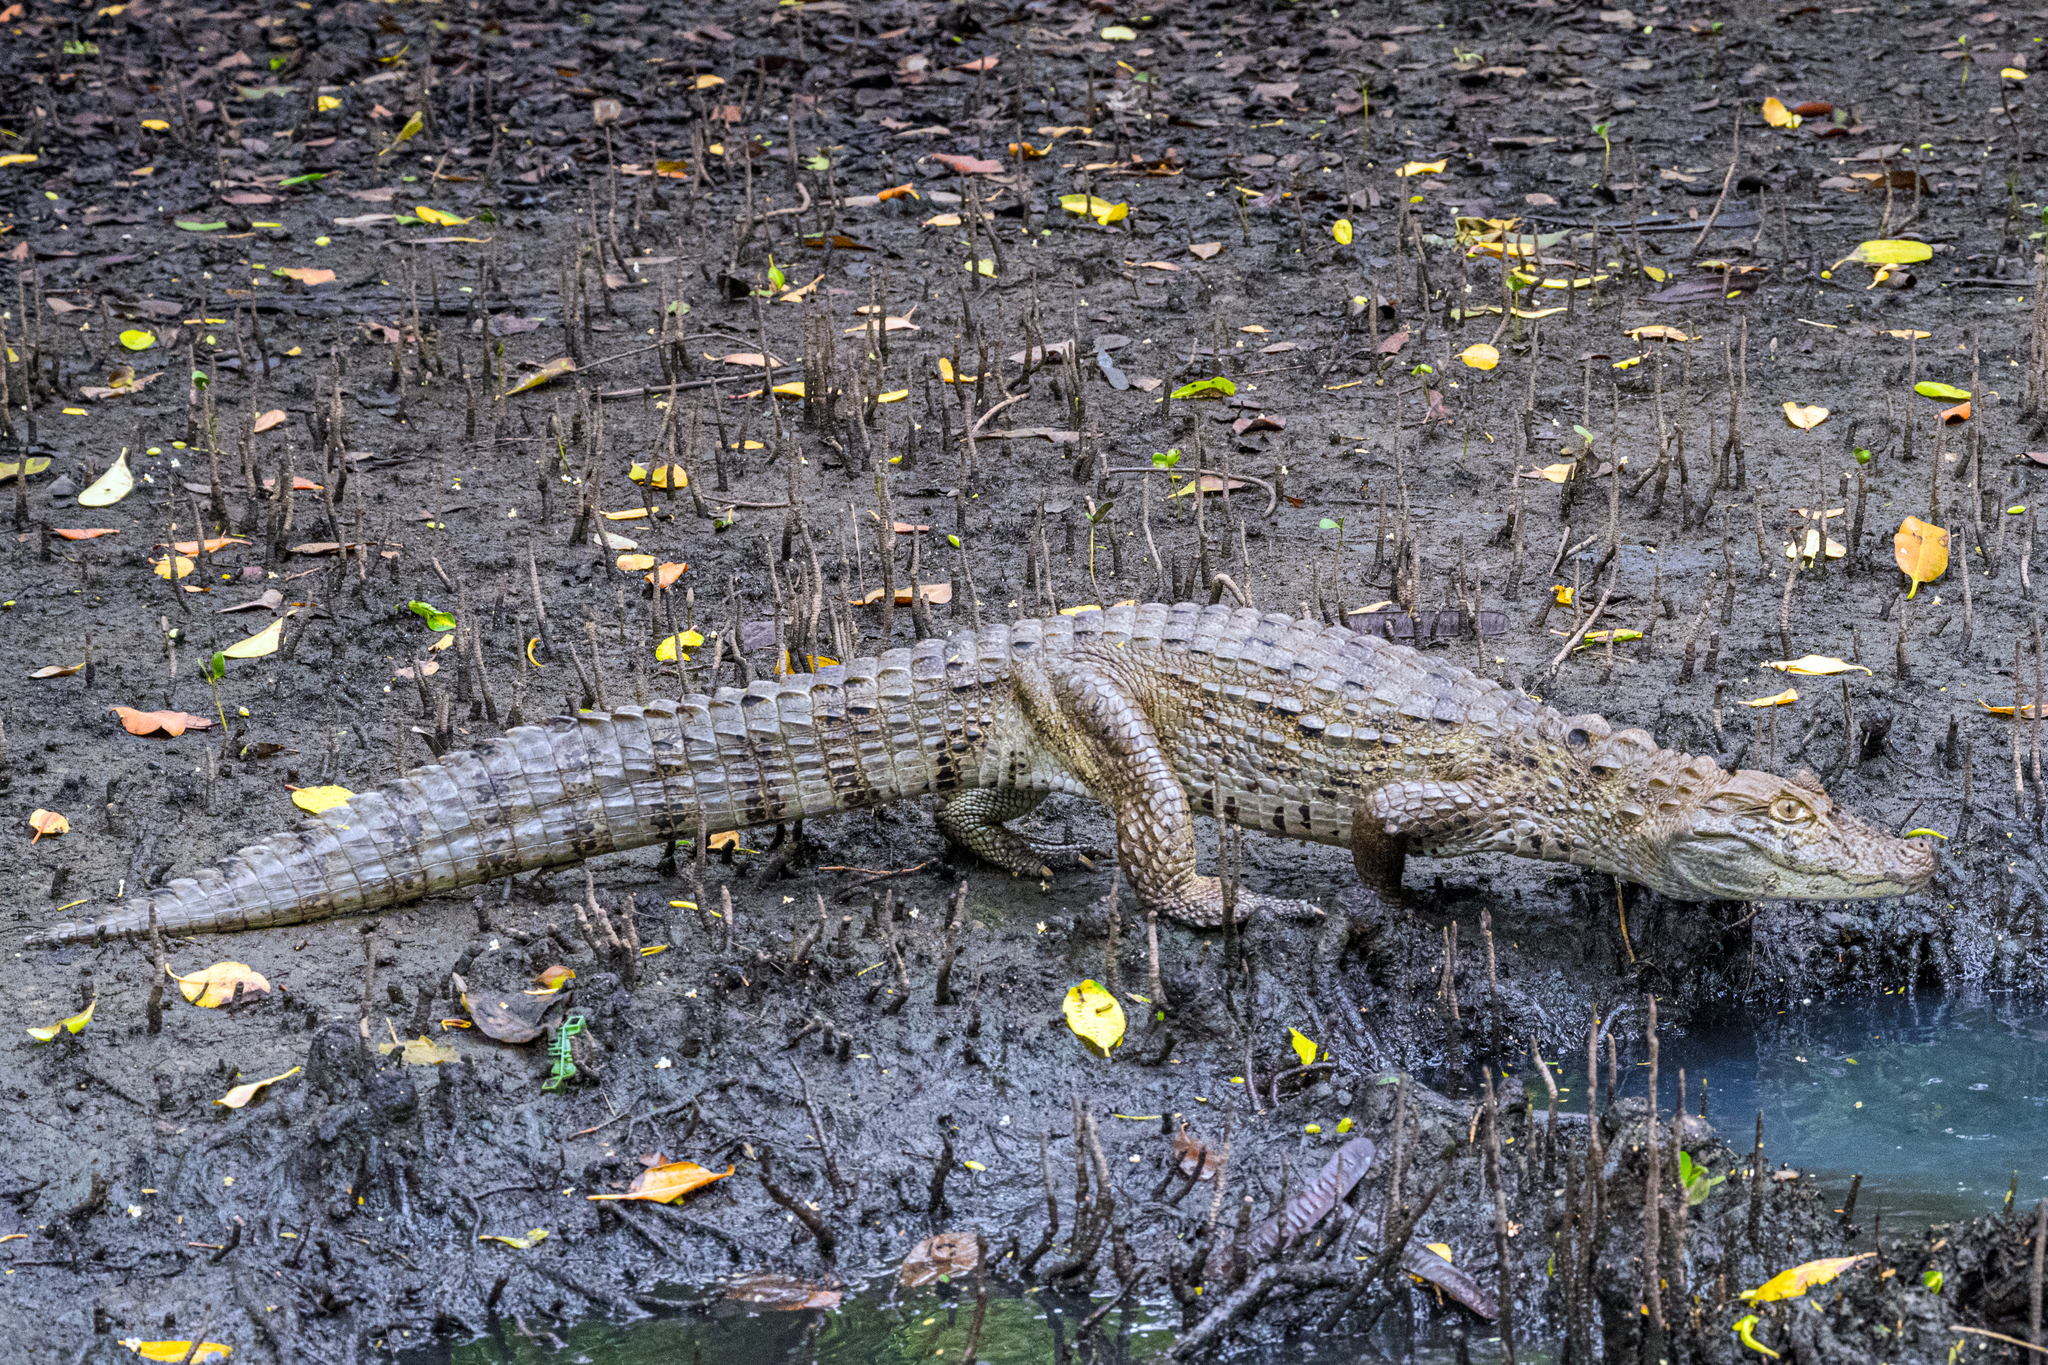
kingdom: Animalia
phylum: Chordata
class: Crocodylia
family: Alligatoridae
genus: Caiman
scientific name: Caiman latirostris
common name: Broad-snouted caiman
